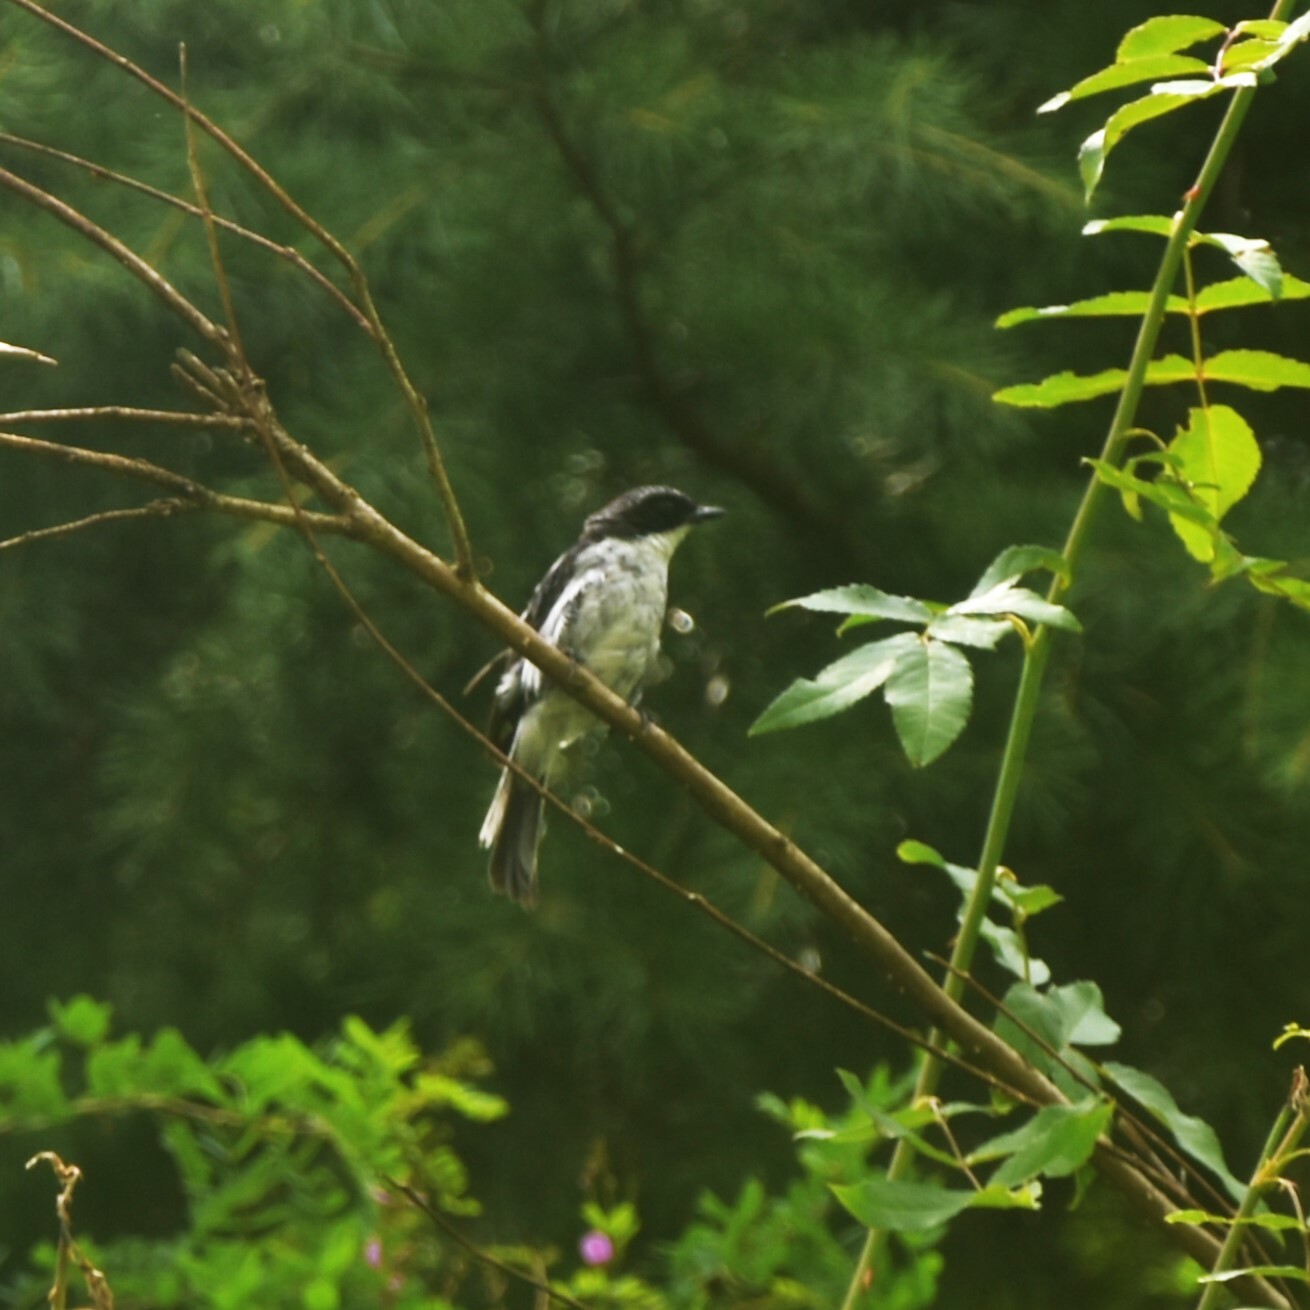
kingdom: Animalia
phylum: Chordata
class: Aves
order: Passeriformes
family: Muscicapidae
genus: Saxicola
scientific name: Saxicola ferreus
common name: Grey bush chat
